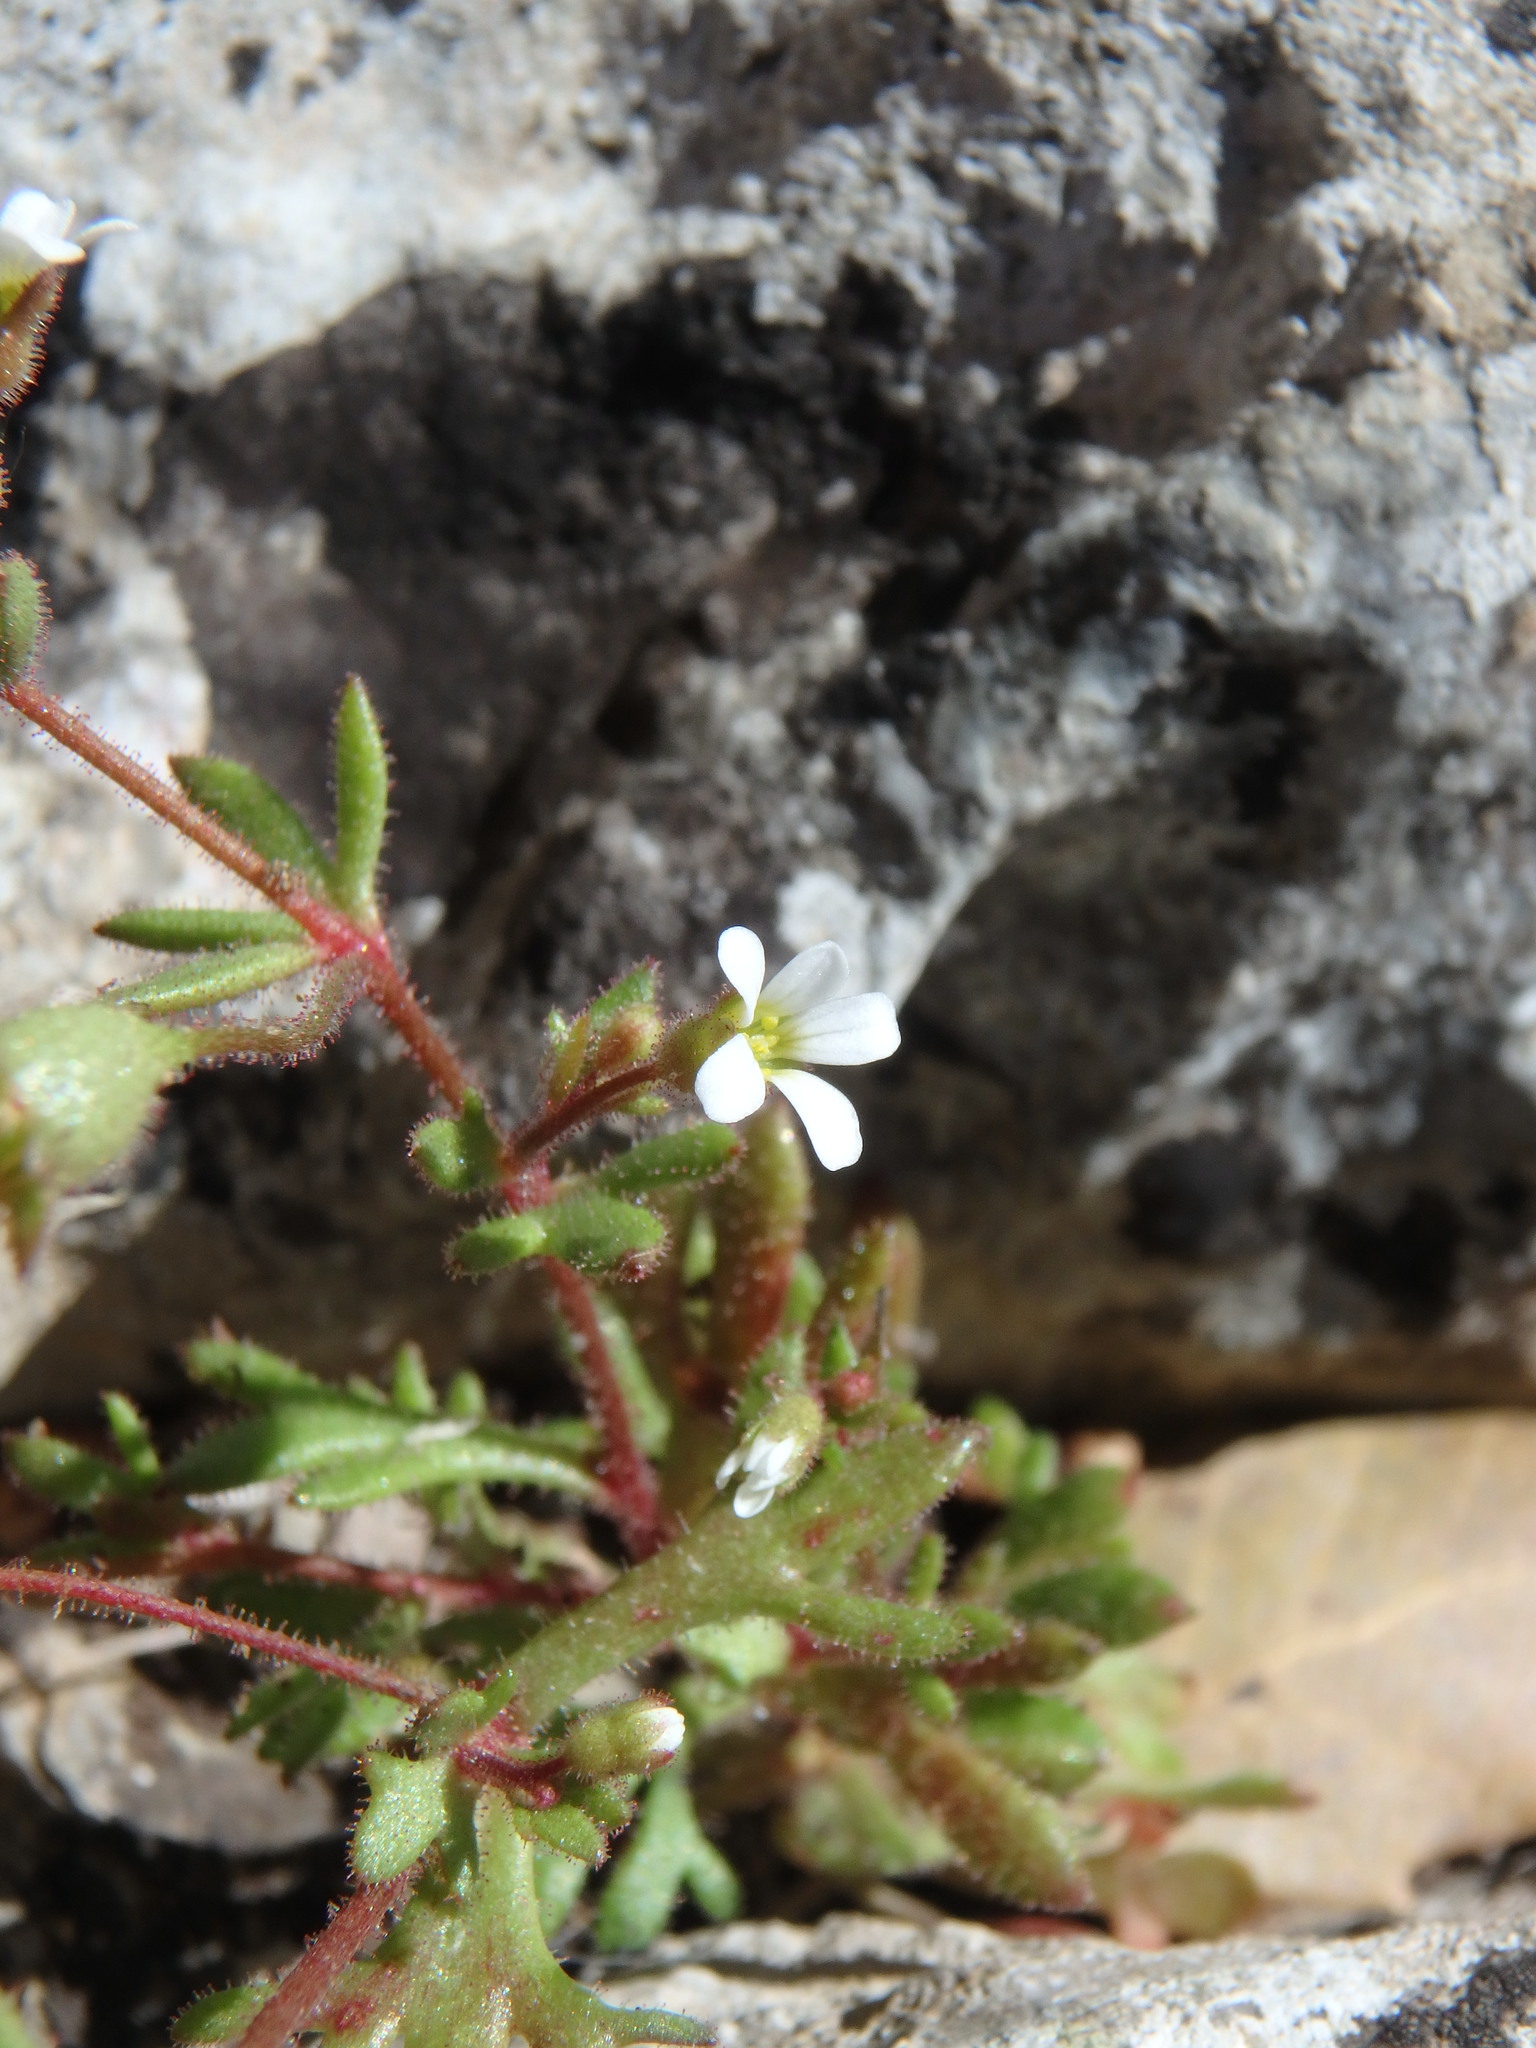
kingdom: Plantae
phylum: Tracheophyta
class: Magnoliopsida
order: Saxifragales
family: Saxifragaceae
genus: Saxifraga
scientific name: Saxifraga tridactylites
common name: Rue-leaved saxifrage
